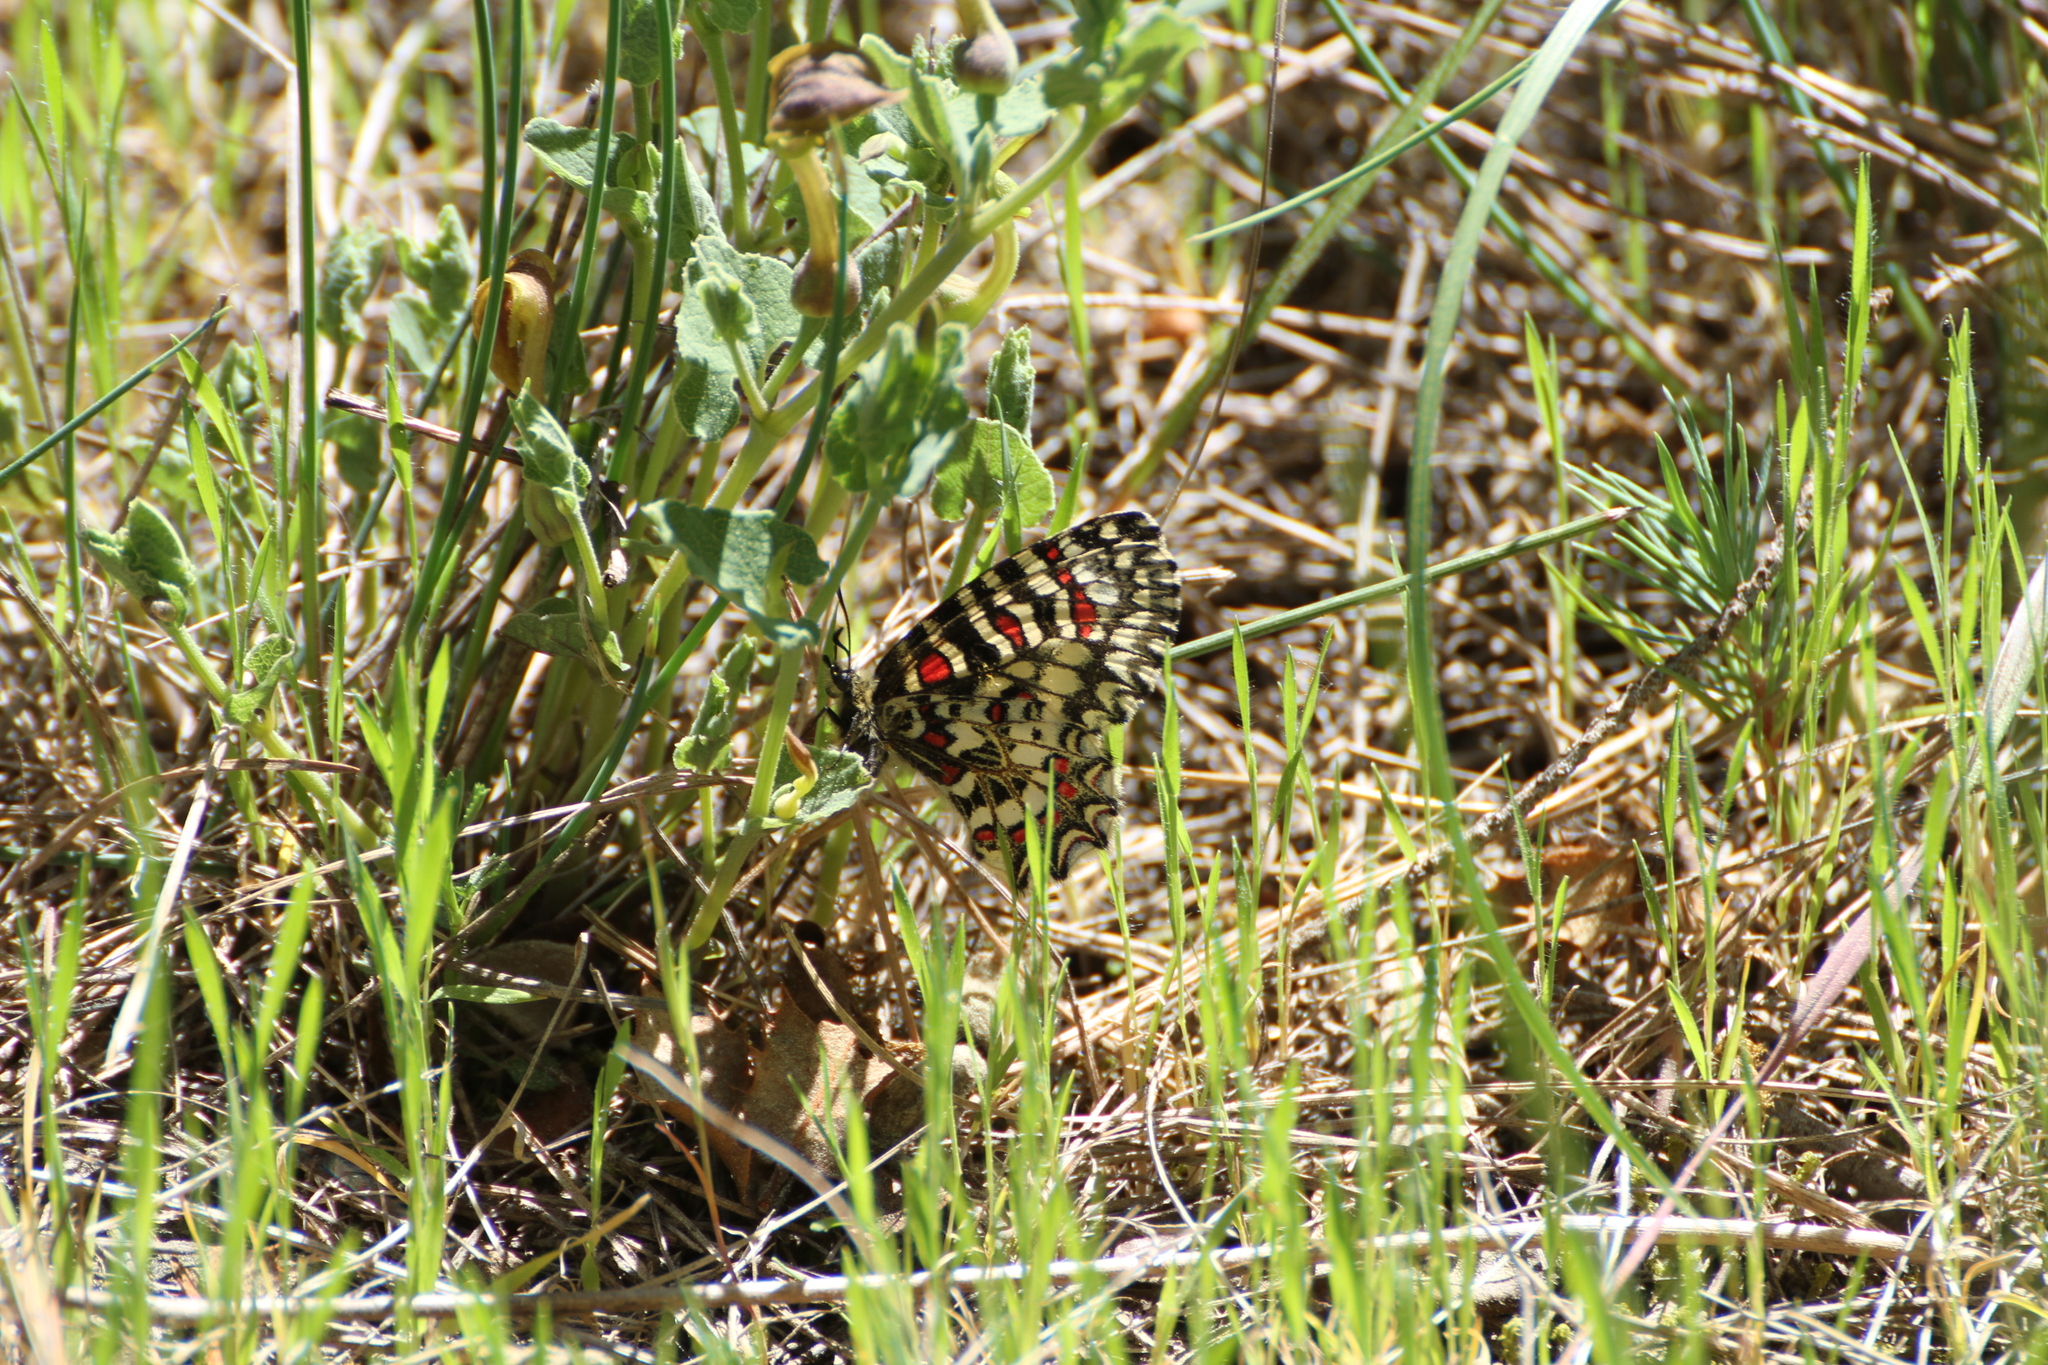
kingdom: Animalia
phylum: Arthropoda
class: Insecta
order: Lepidoptera
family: Papilionidae
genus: Zerynthia
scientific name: Zerynthia rumina
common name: Spanish festoon
